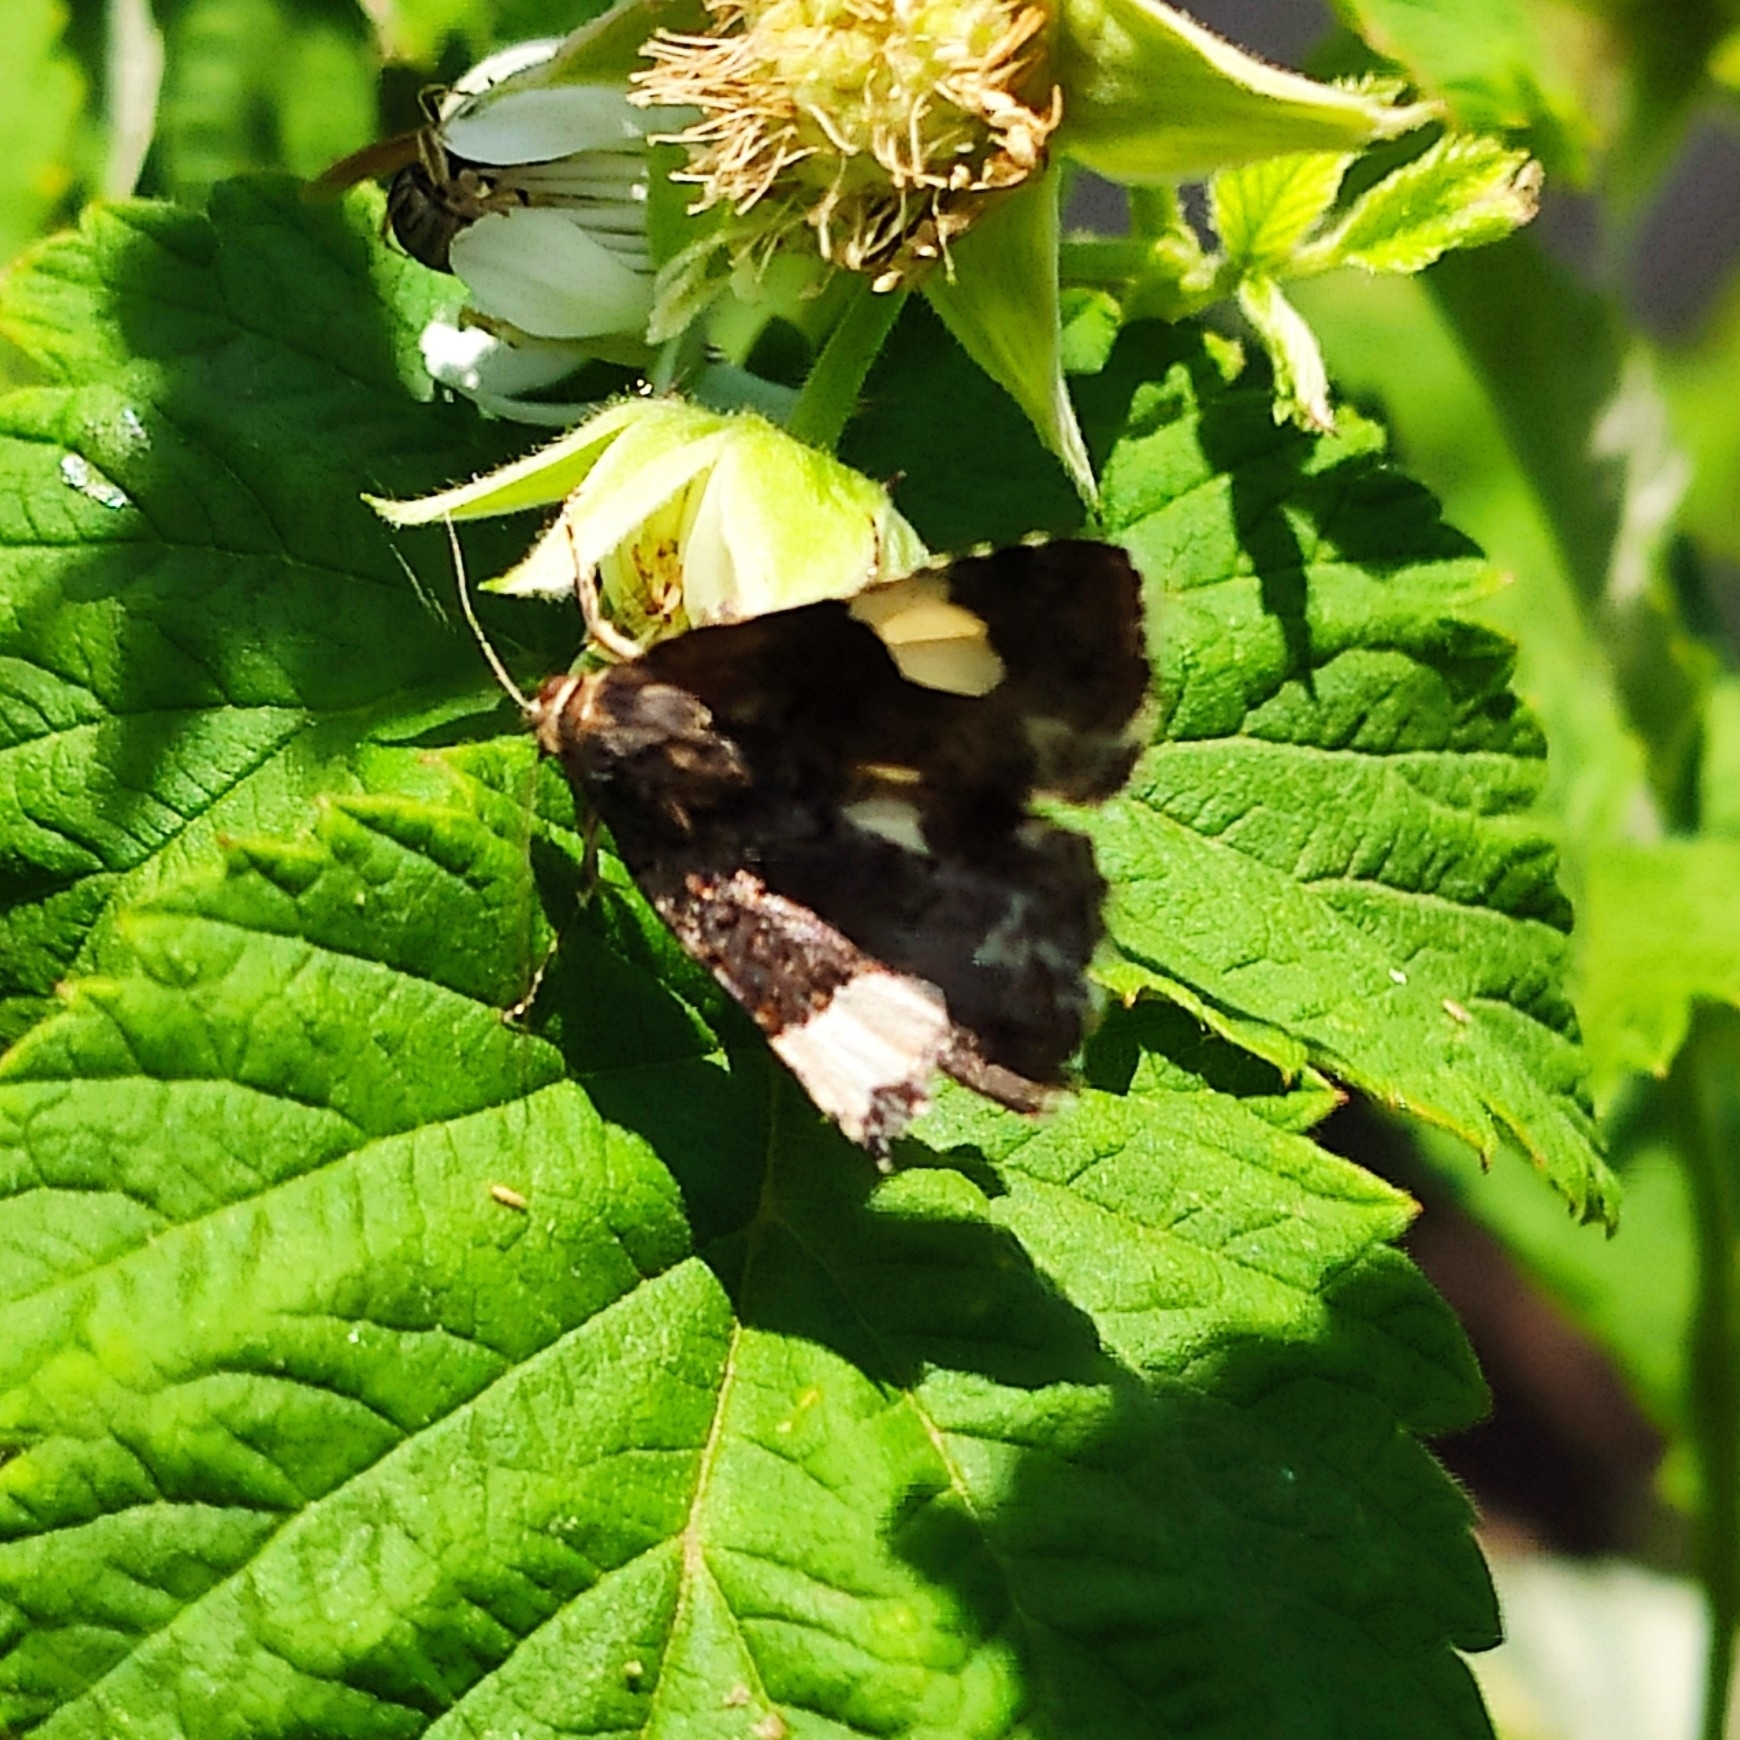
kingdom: Animalia
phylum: Arthropoda
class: Insecta
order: Lepidoptera
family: Erebidae
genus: Tyta
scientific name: Tyta luctuosa
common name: Four-spotted
